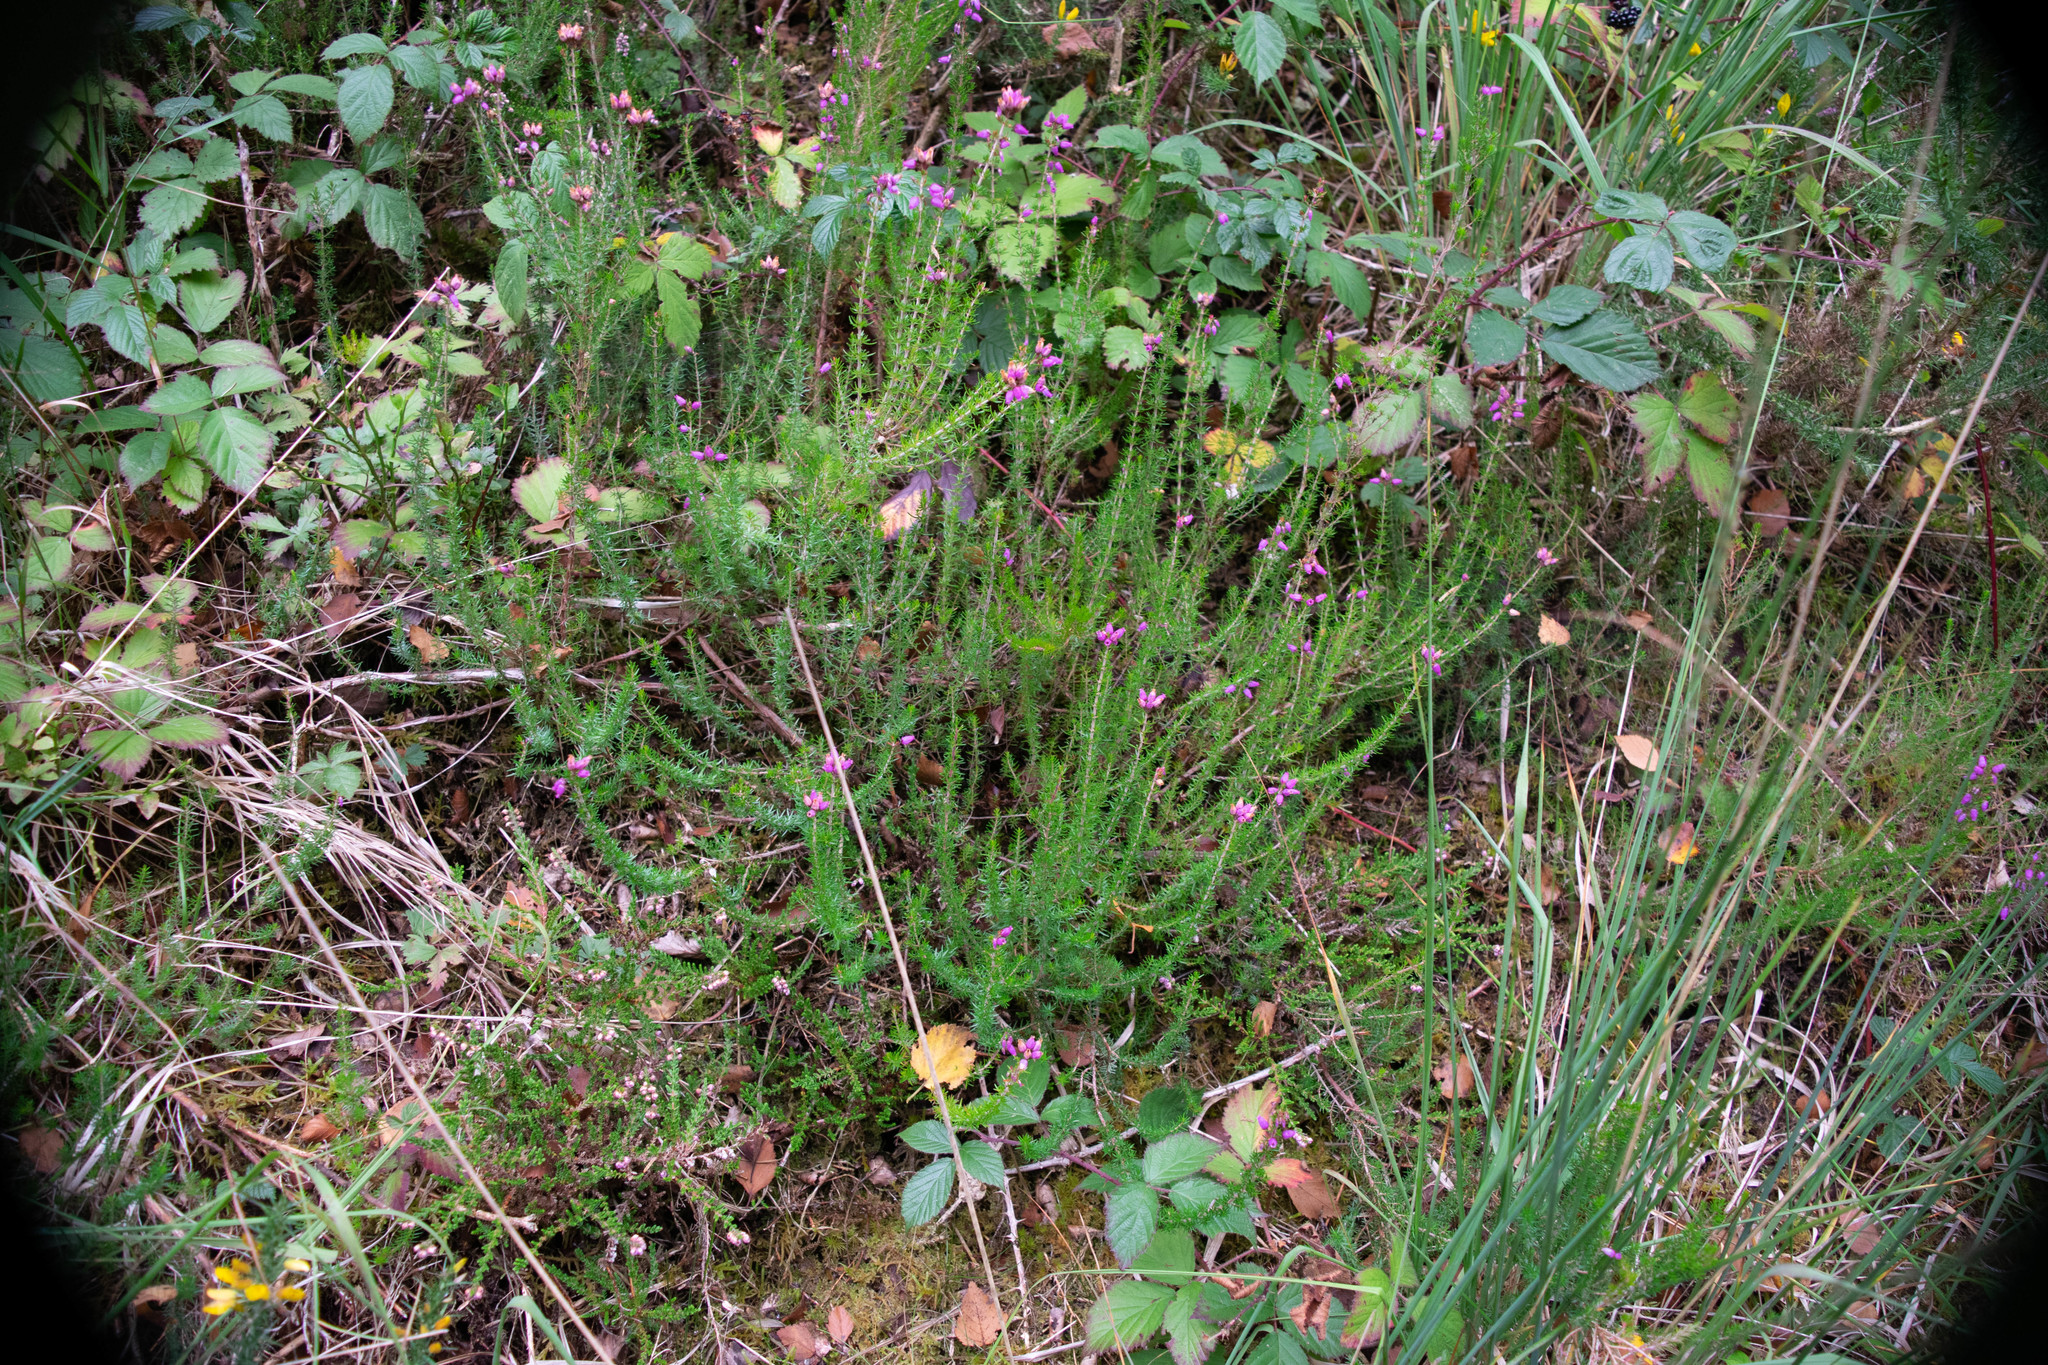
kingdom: Plantae
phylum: Tracheophyta
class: Magnoliopsida
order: Ericales
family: Ericaceae
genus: Erica
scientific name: Erica cinerea
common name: Bell heather
